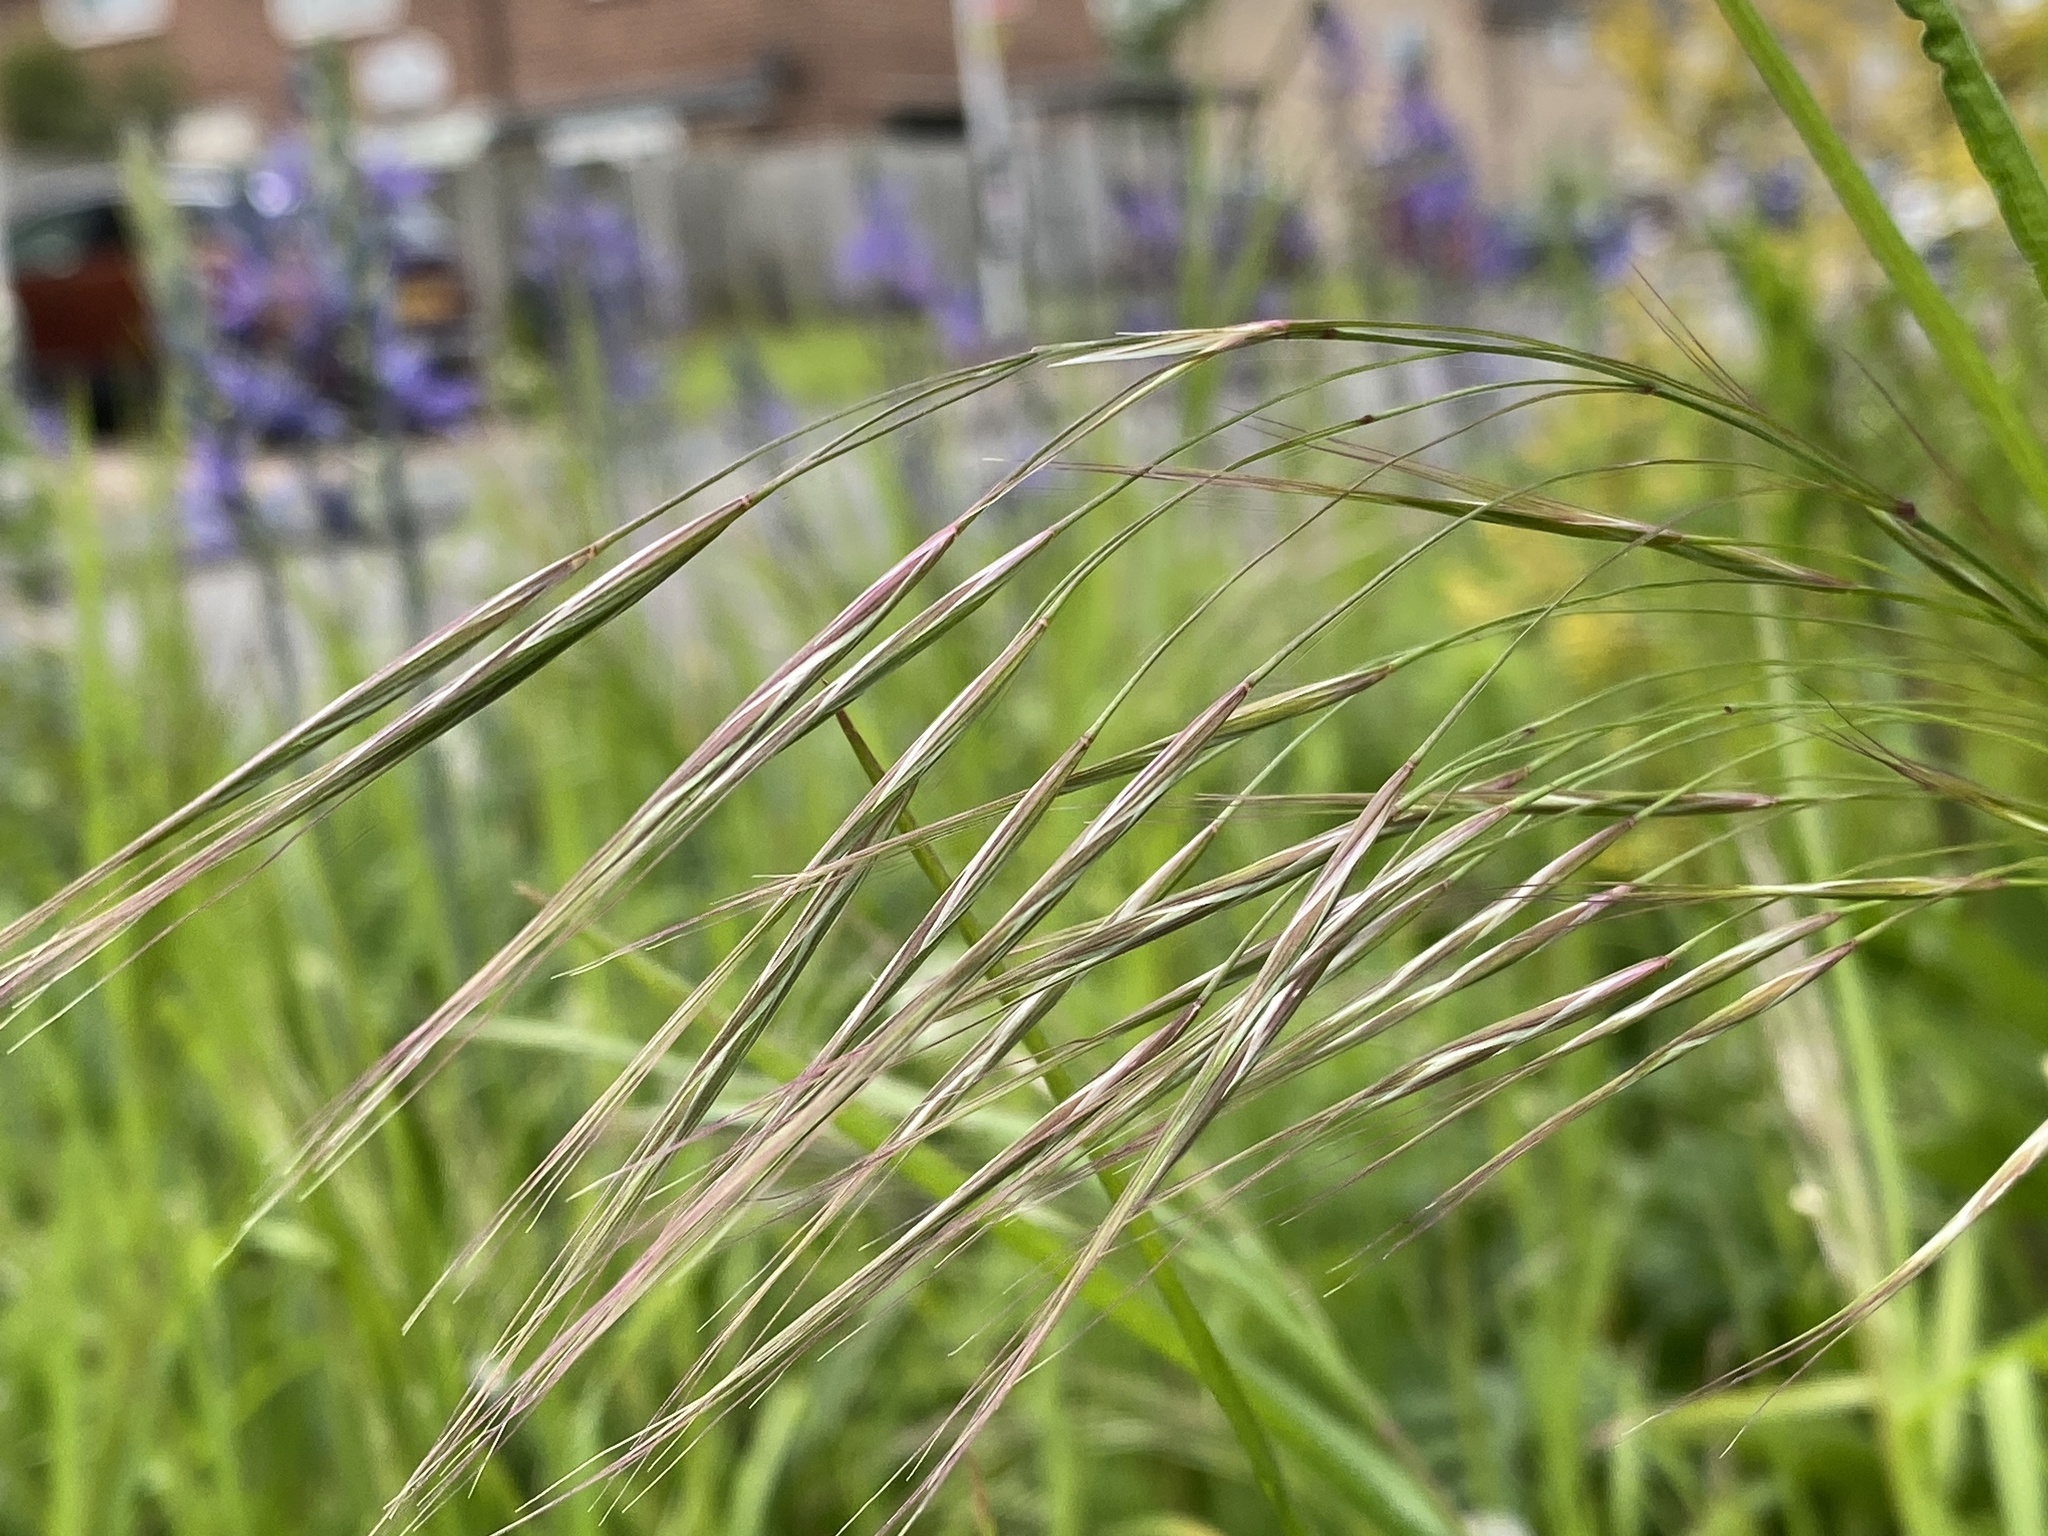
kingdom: Plantae
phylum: Tracheophyta
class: Liliopsida
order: Poales
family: Poaceae
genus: Bromus
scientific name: Bromus sterilis
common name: Poverty brome
